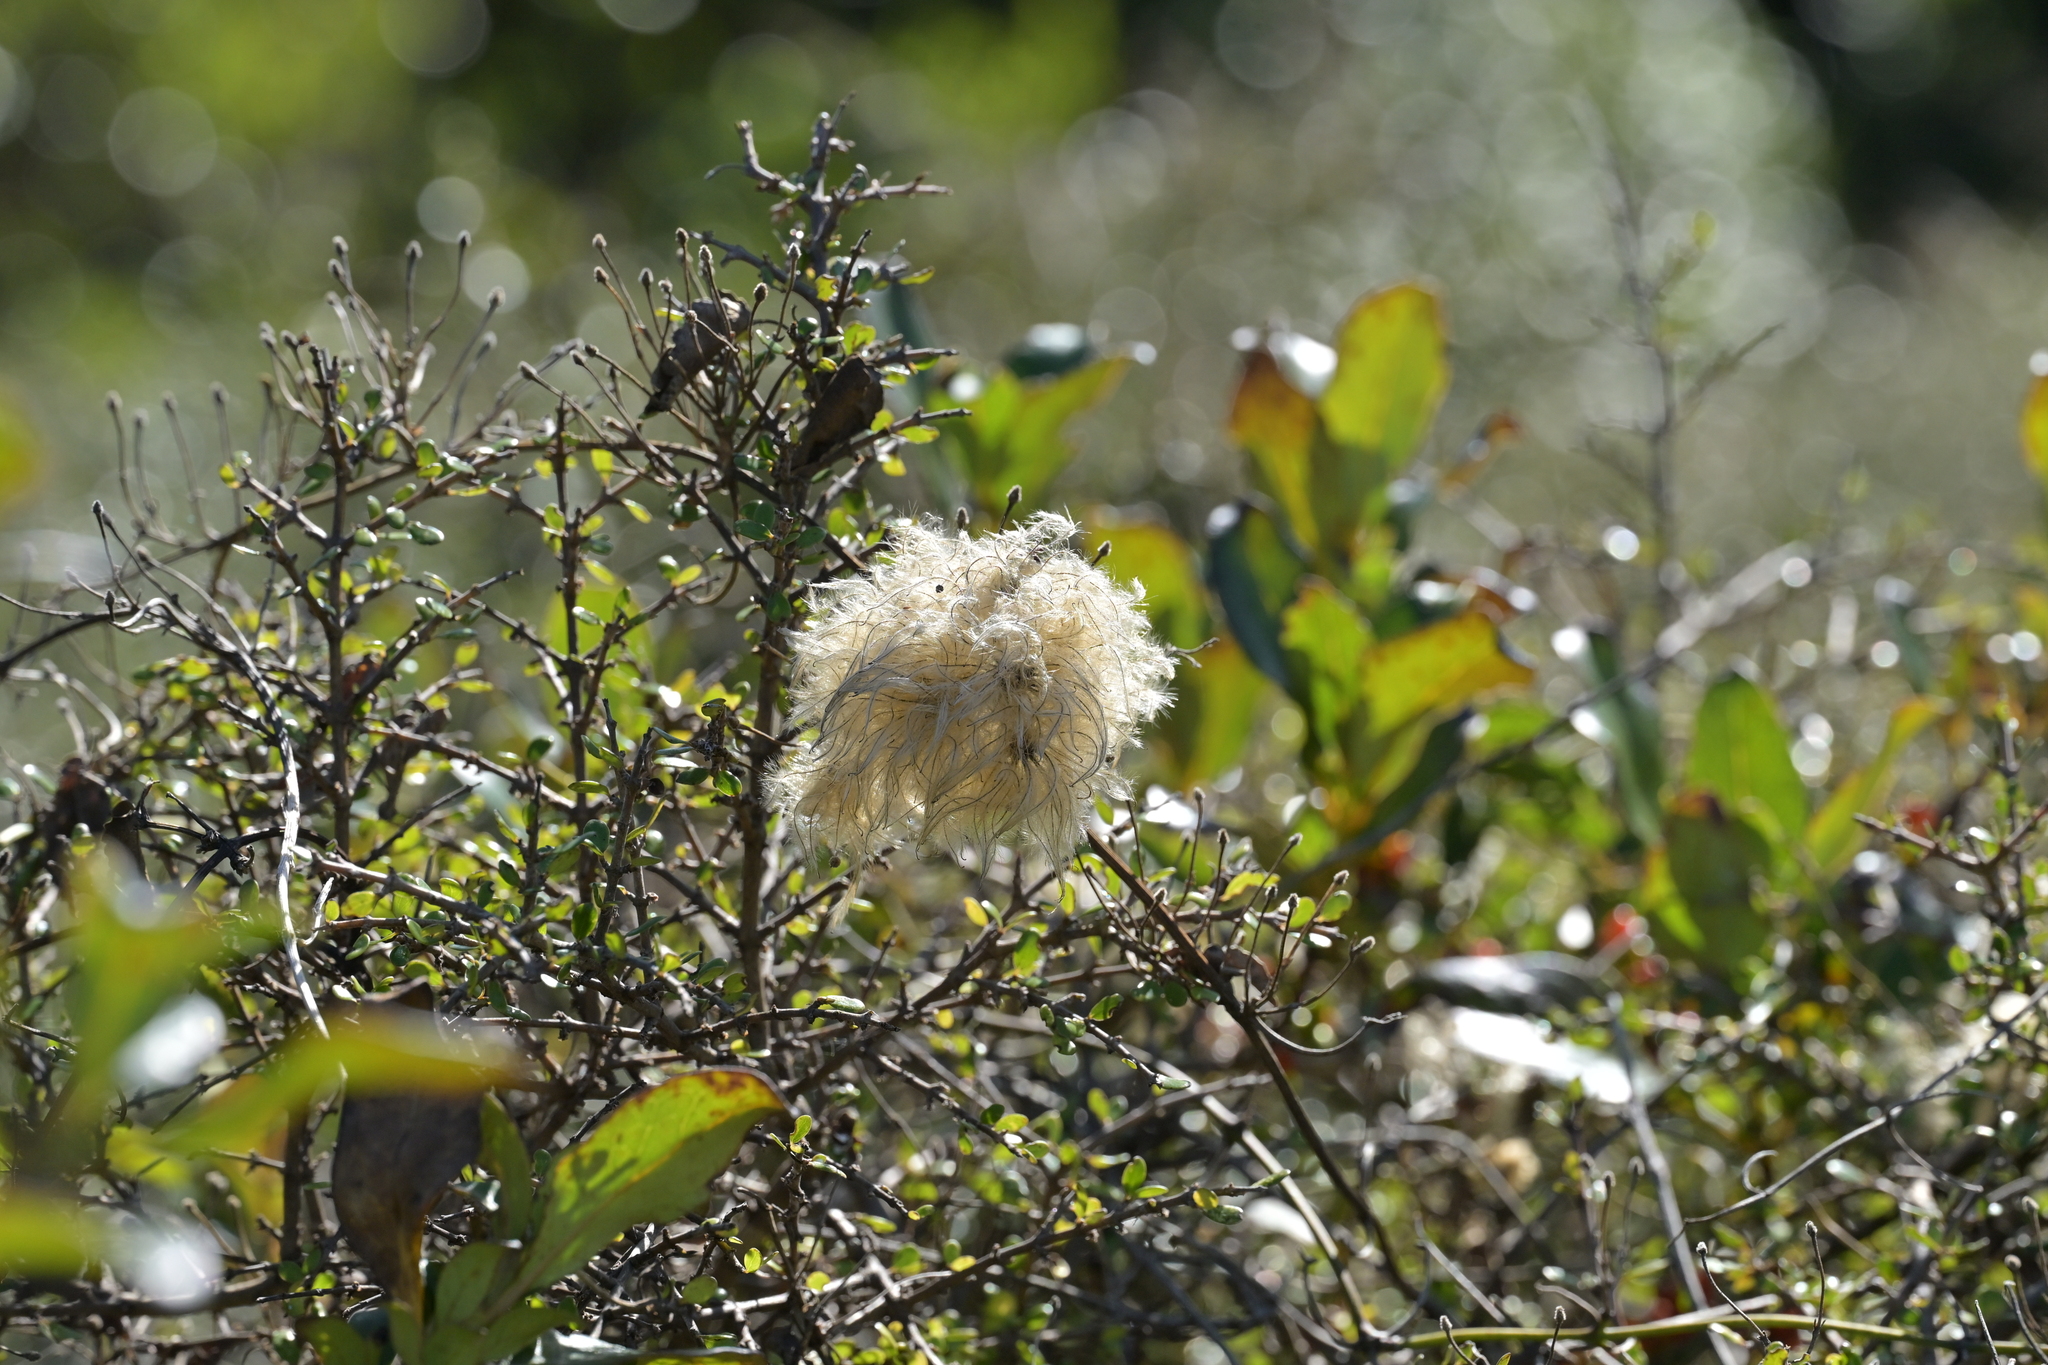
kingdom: Plantae
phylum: Tracheophyta
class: Magnoliopsida
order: Ranunculales
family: Ranunculaceae
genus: Clematis
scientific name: Clematis forsteri
